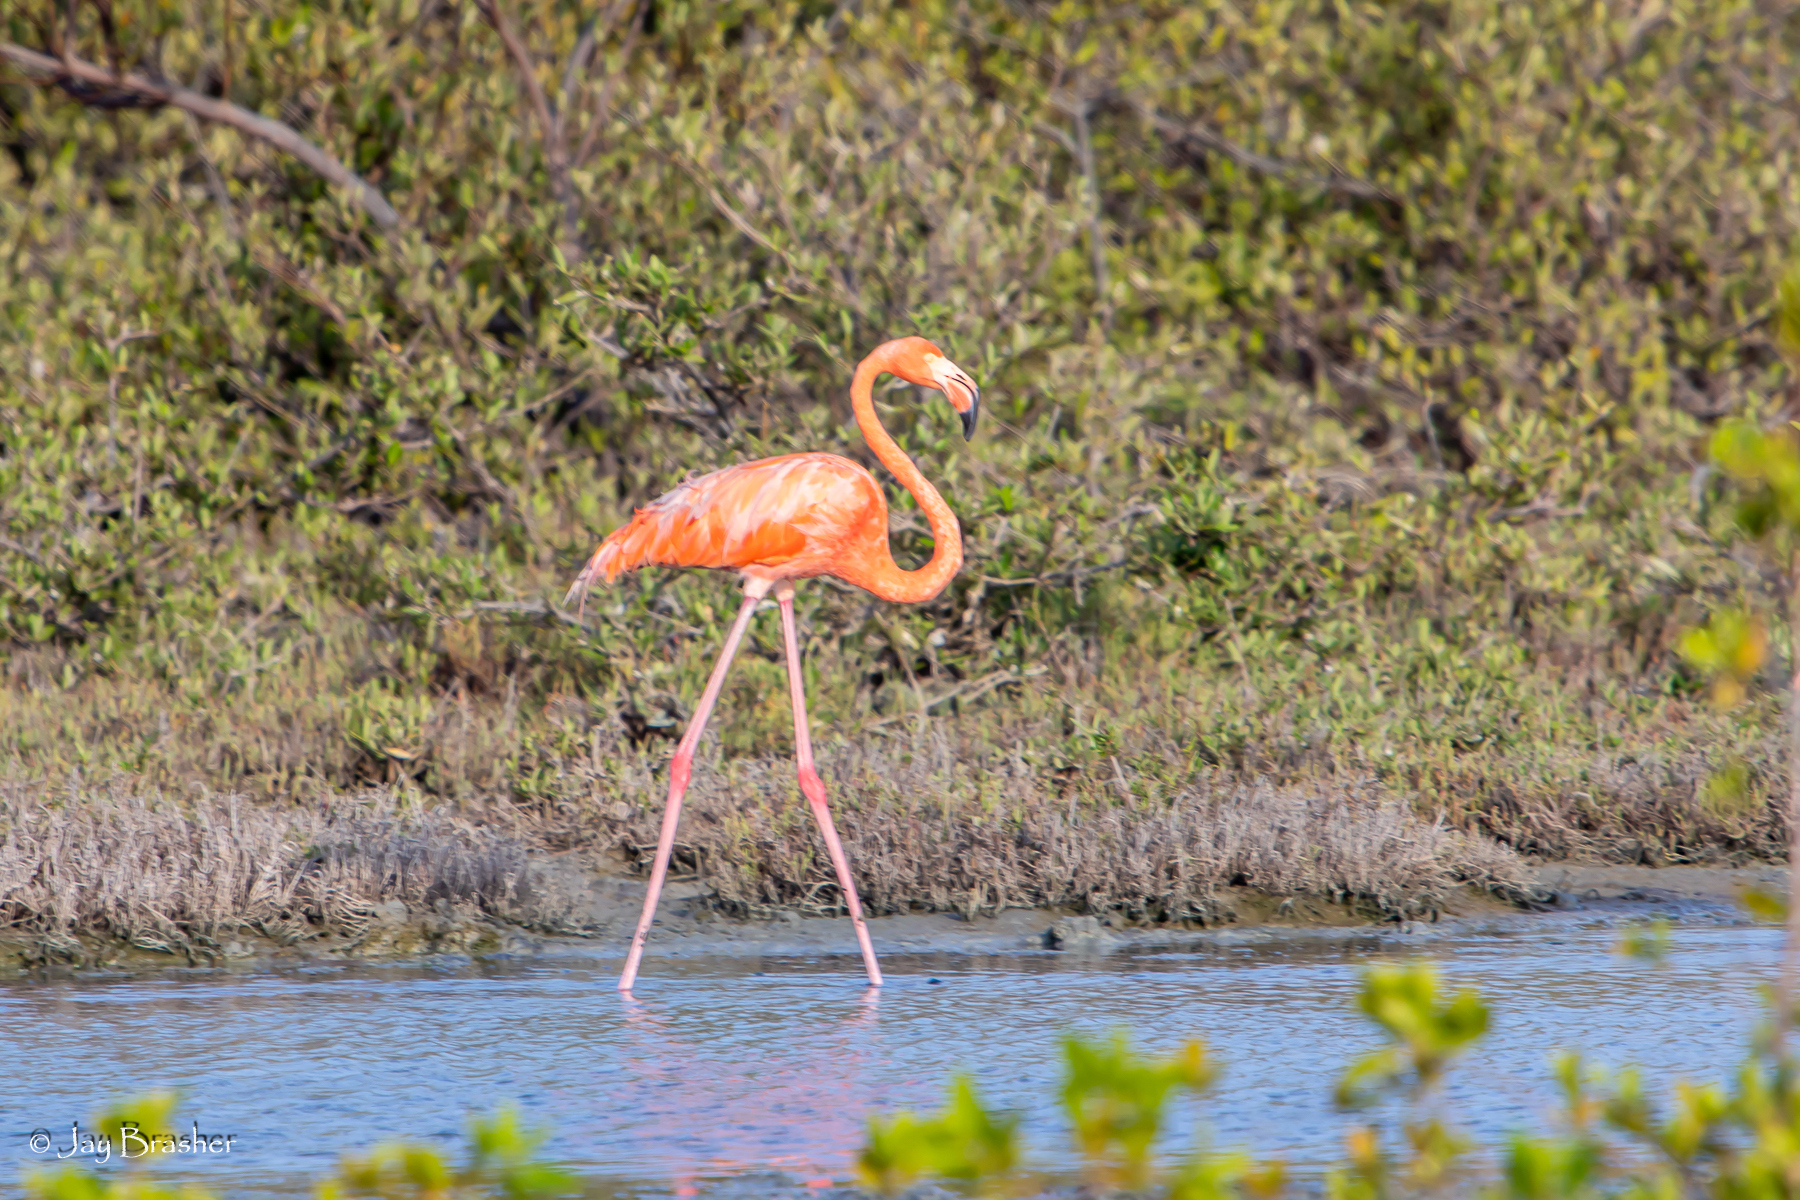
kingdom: Animalia
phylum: Chordata
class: Aves
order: Phoenicopteriformes
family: Phoenicopteridae
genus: Phoenicopterus
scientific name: Phoenicopterus ruber
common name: American flamingo
